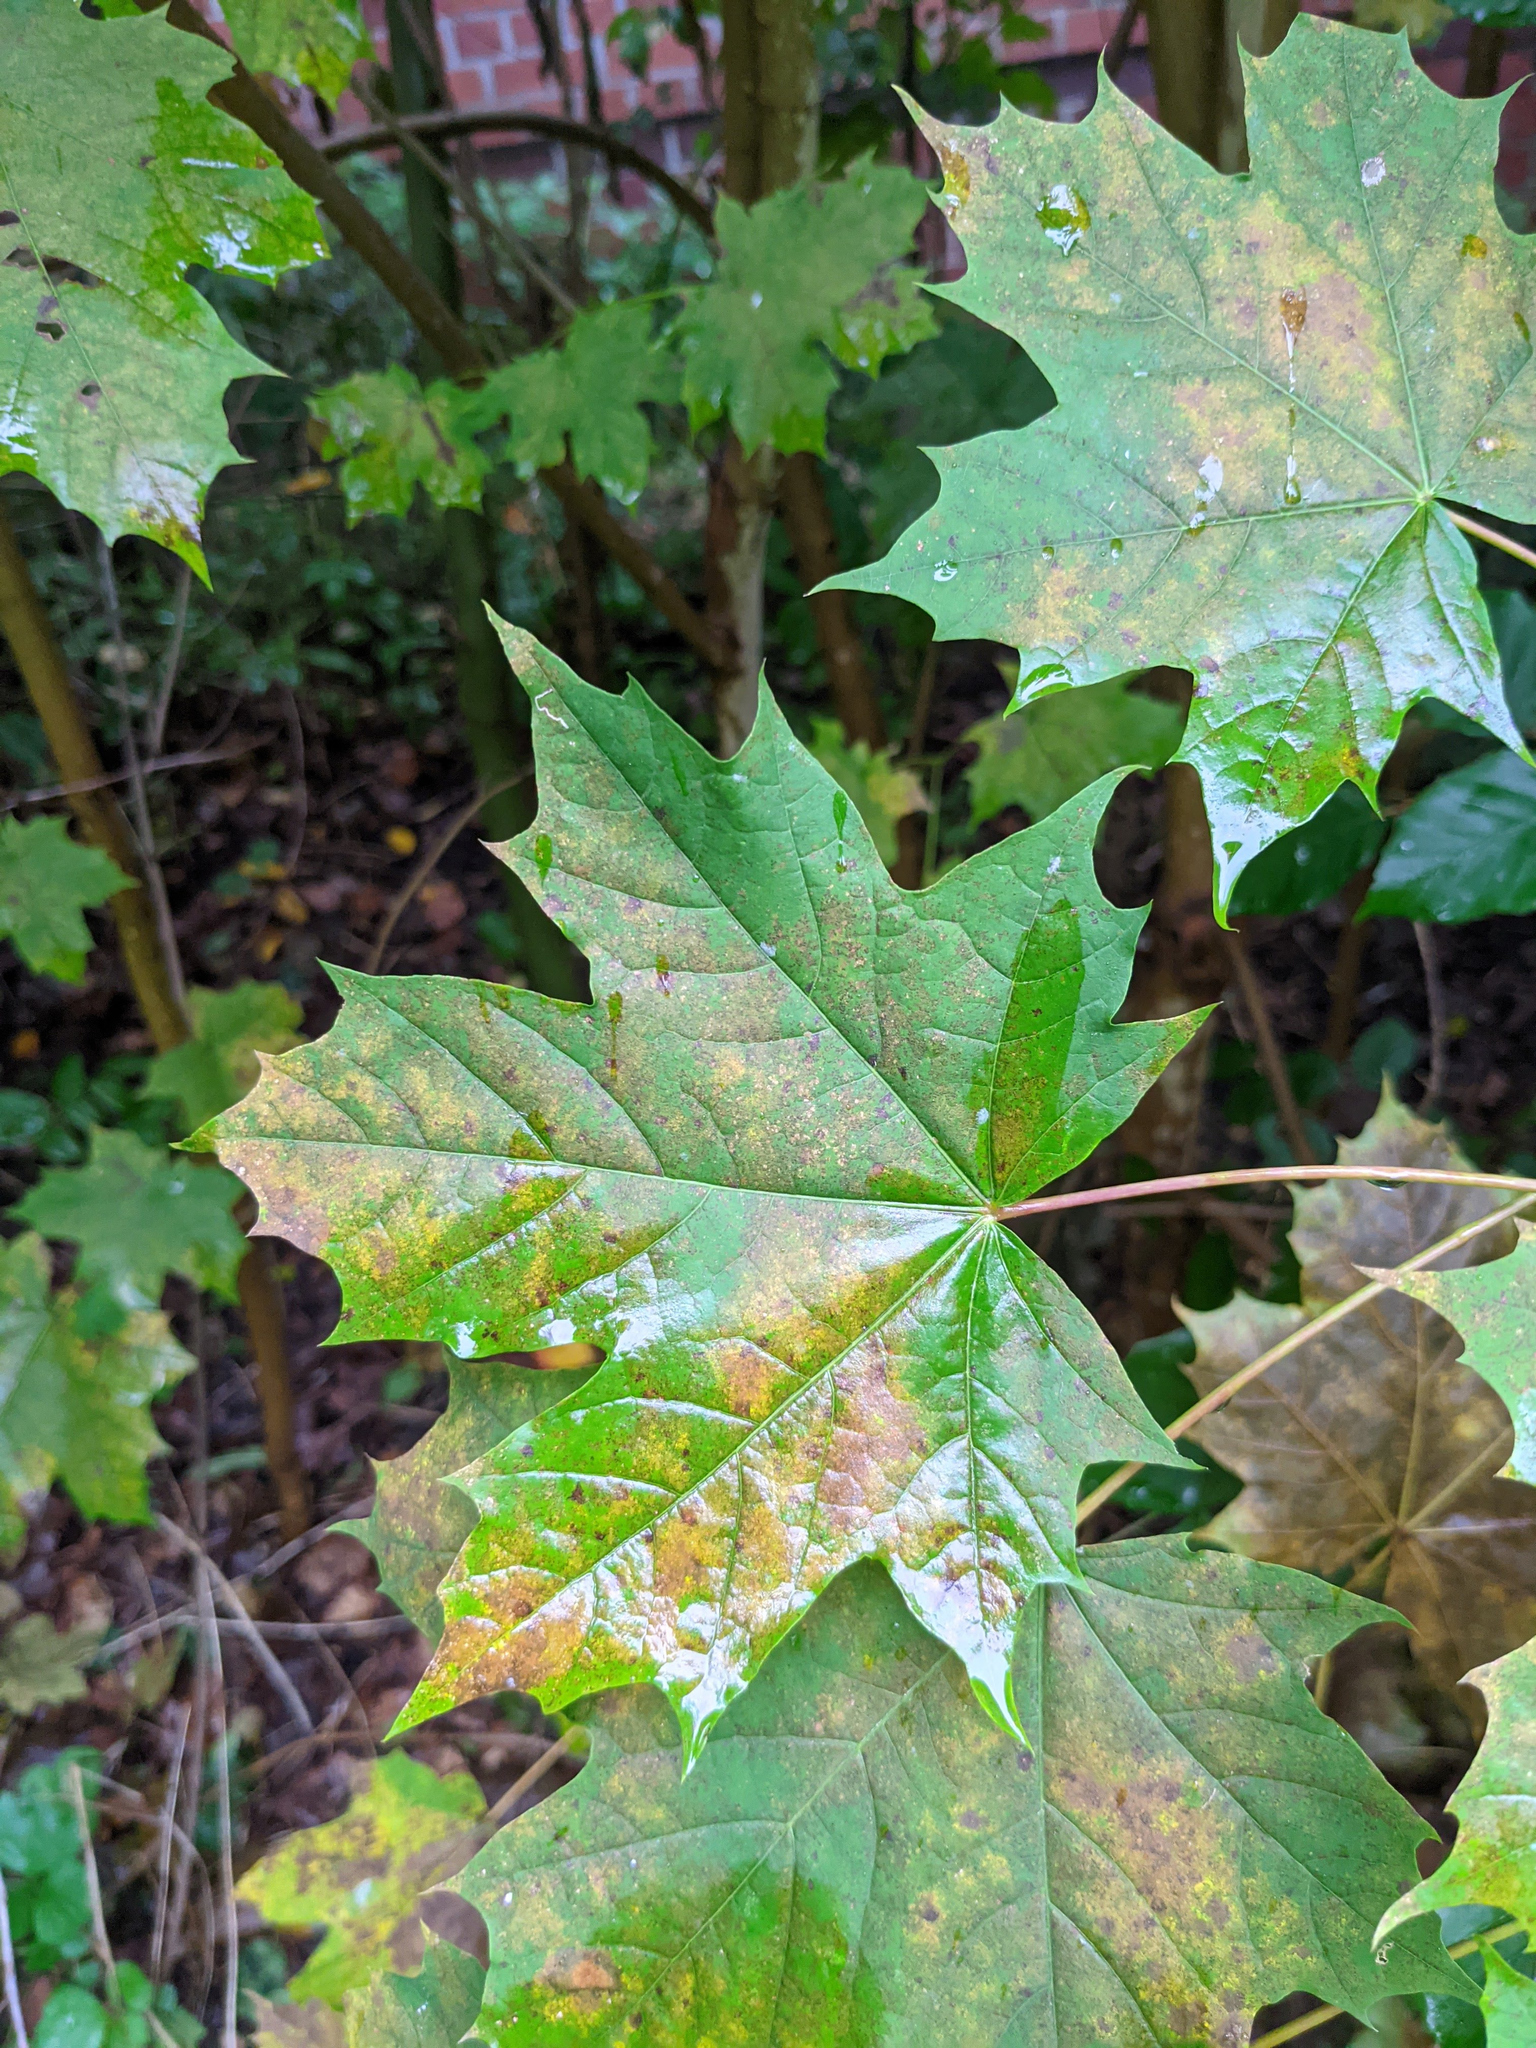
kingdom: Plantae
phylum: Tracheophyta
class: Magnoliopsida
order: Sapindales
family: Sapindaceae
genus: Acer
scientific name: Acer platanoides
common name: Norway maple
